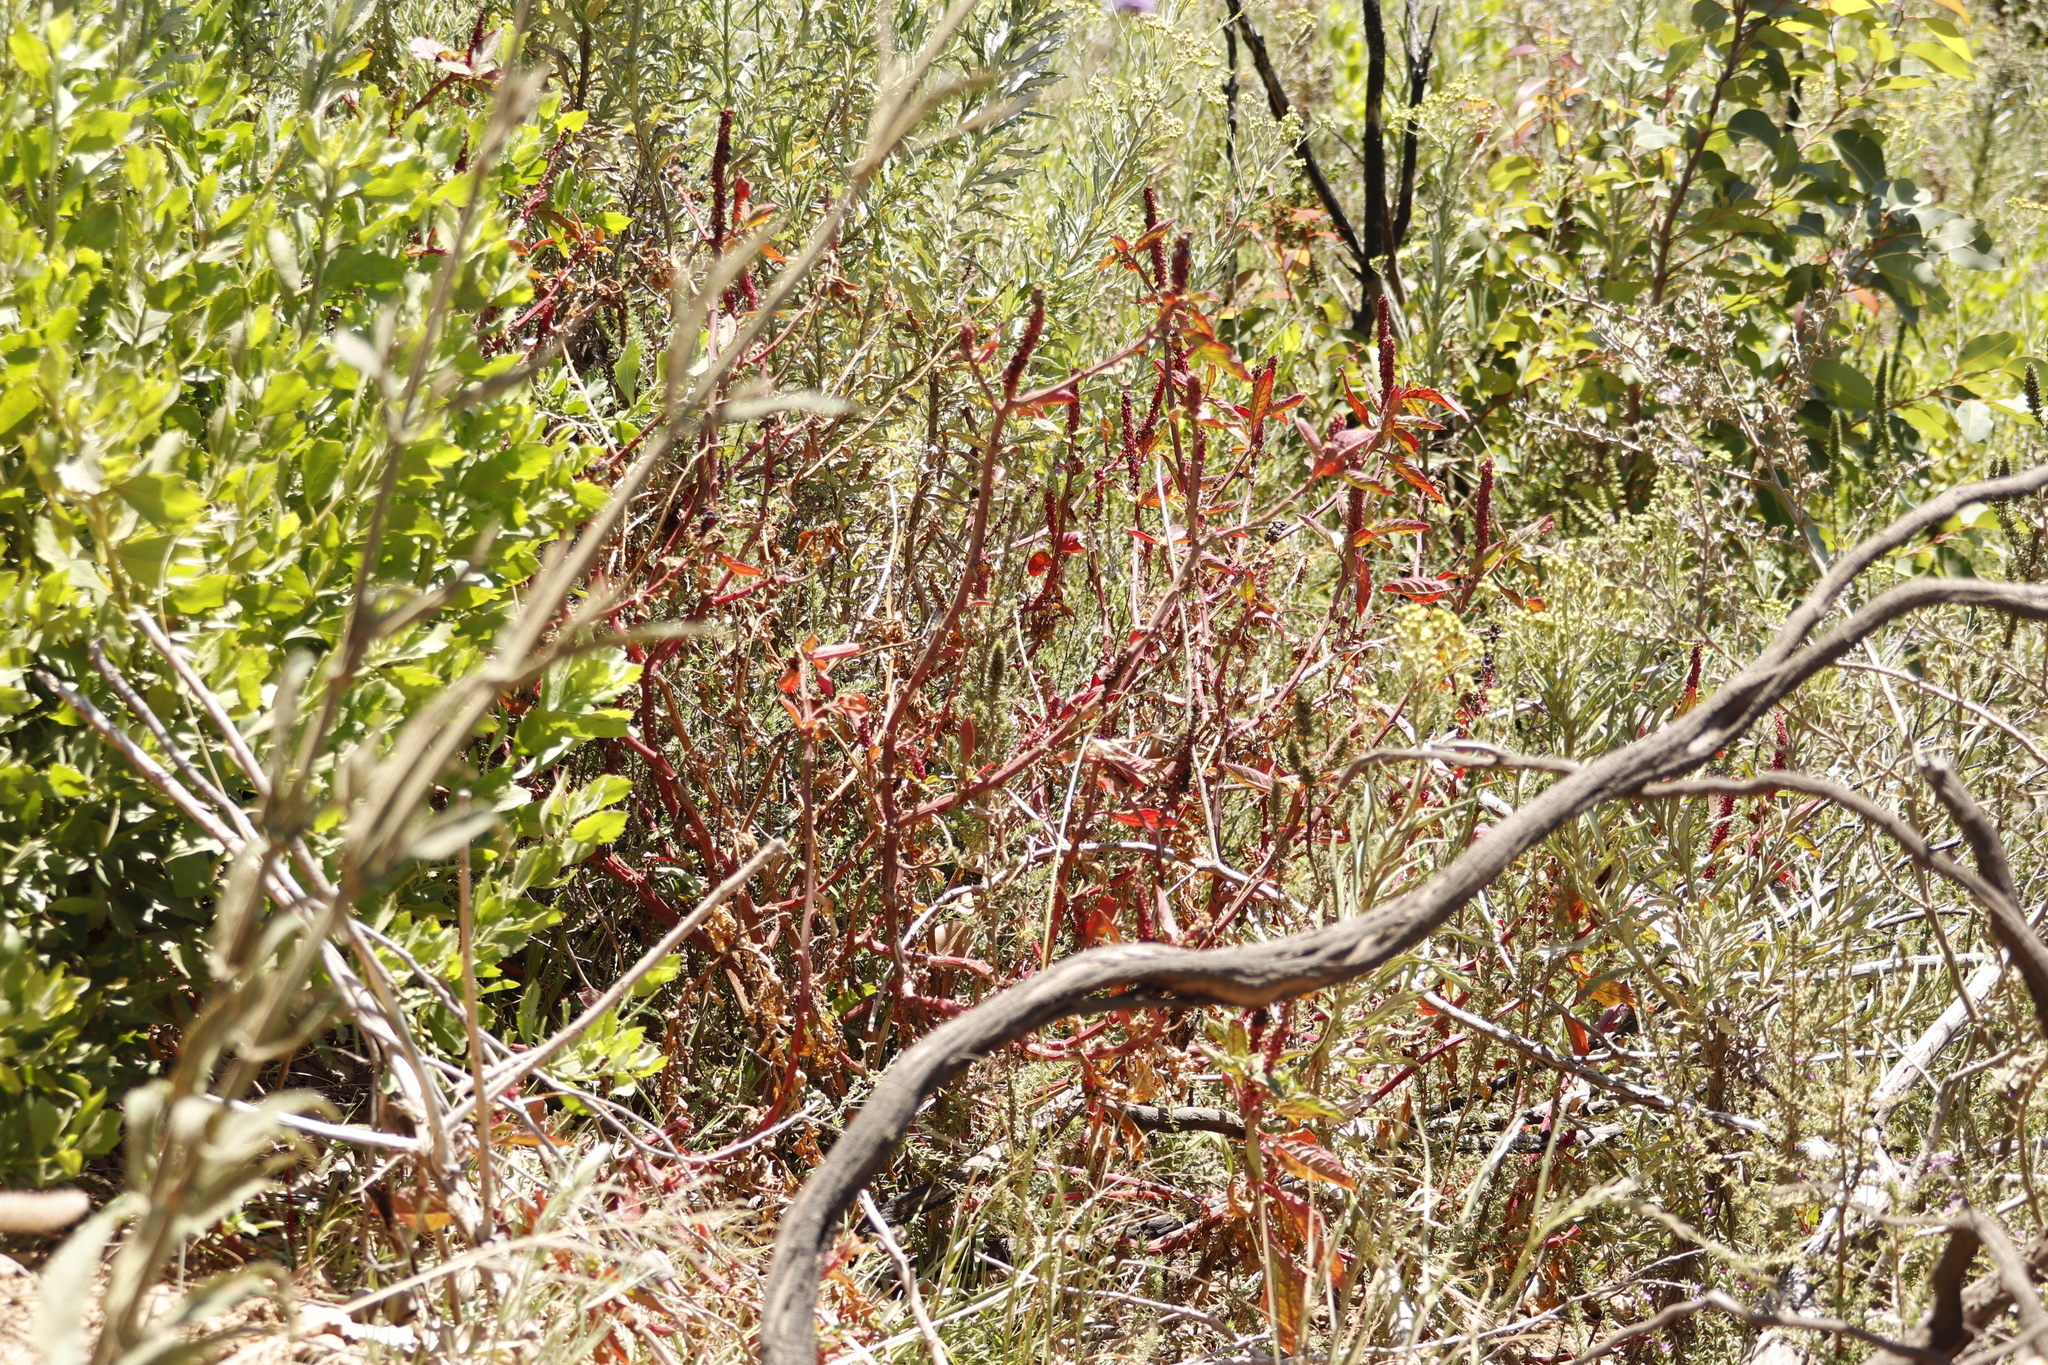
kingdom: Plantae
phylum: Tracheophyta
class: Magnoliopsida
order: Caryophyllales
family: Phytolaccaceae
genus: Phytolacca
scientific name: Phytolacca icosandra
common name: Button pokeweed
